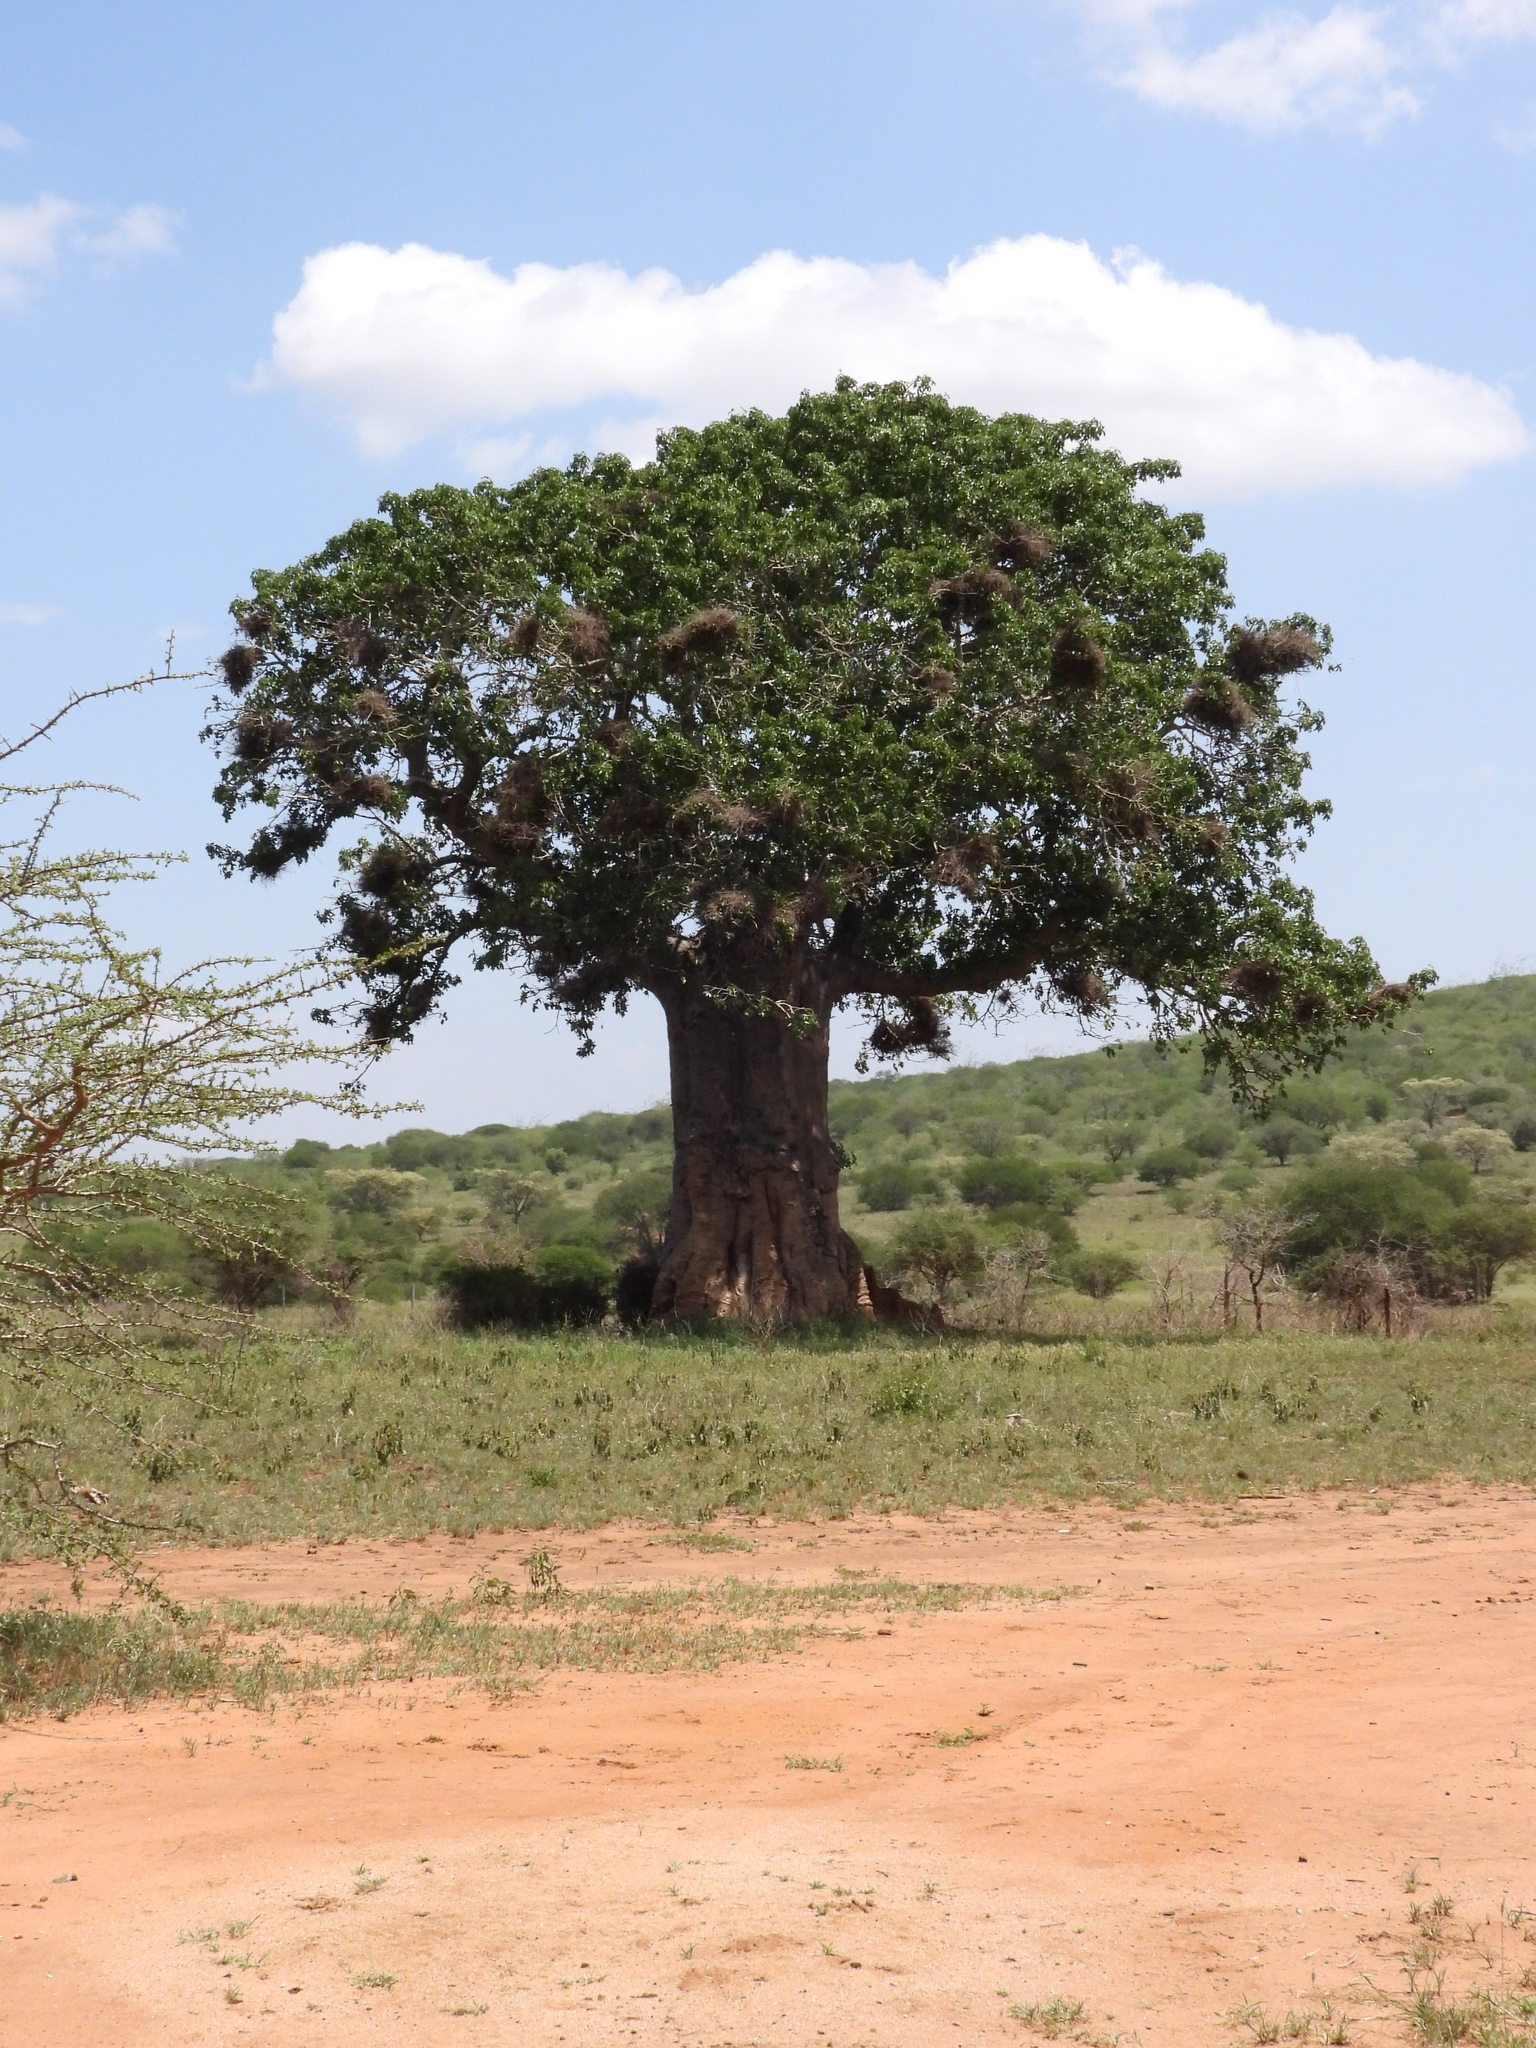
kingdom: Plantae
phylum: Tracheophyta
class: Magnoliopsida
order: Malvales
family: Malvaceae
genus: Adansonia
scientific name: Adansonia digitata
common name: Dead-rat-tree
